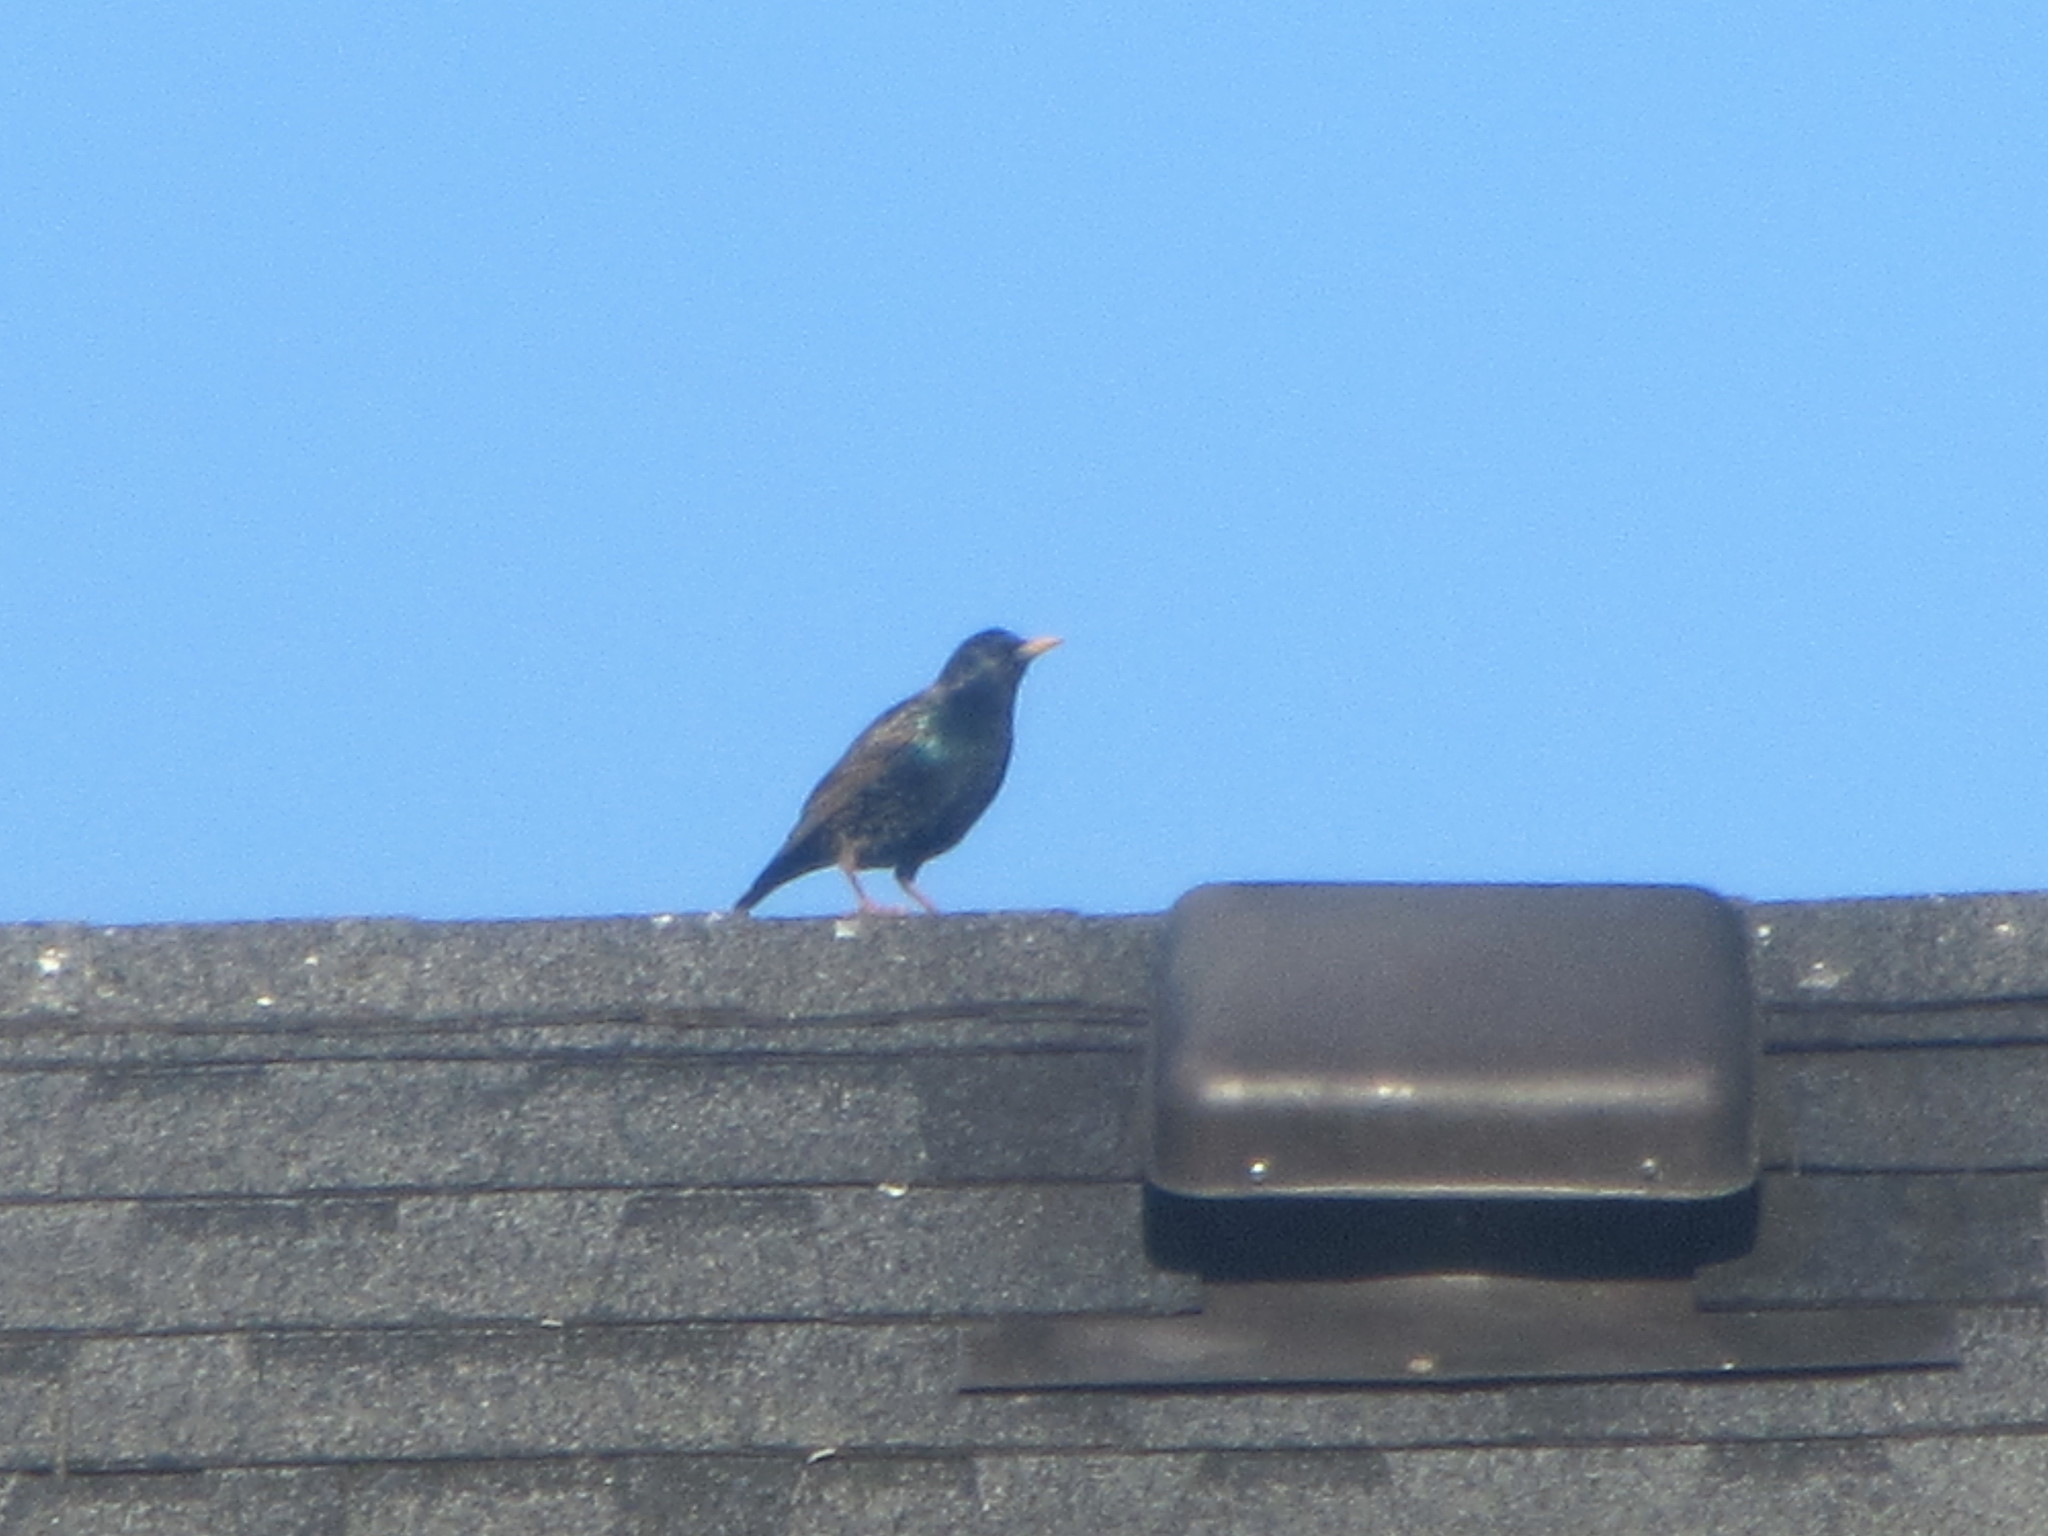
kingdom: Animalia
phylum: Chordata
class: Aves
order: Passeriformes
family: Sturnidae
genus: Sturnus
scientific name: Sturnus vulgaris
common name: Common starling
